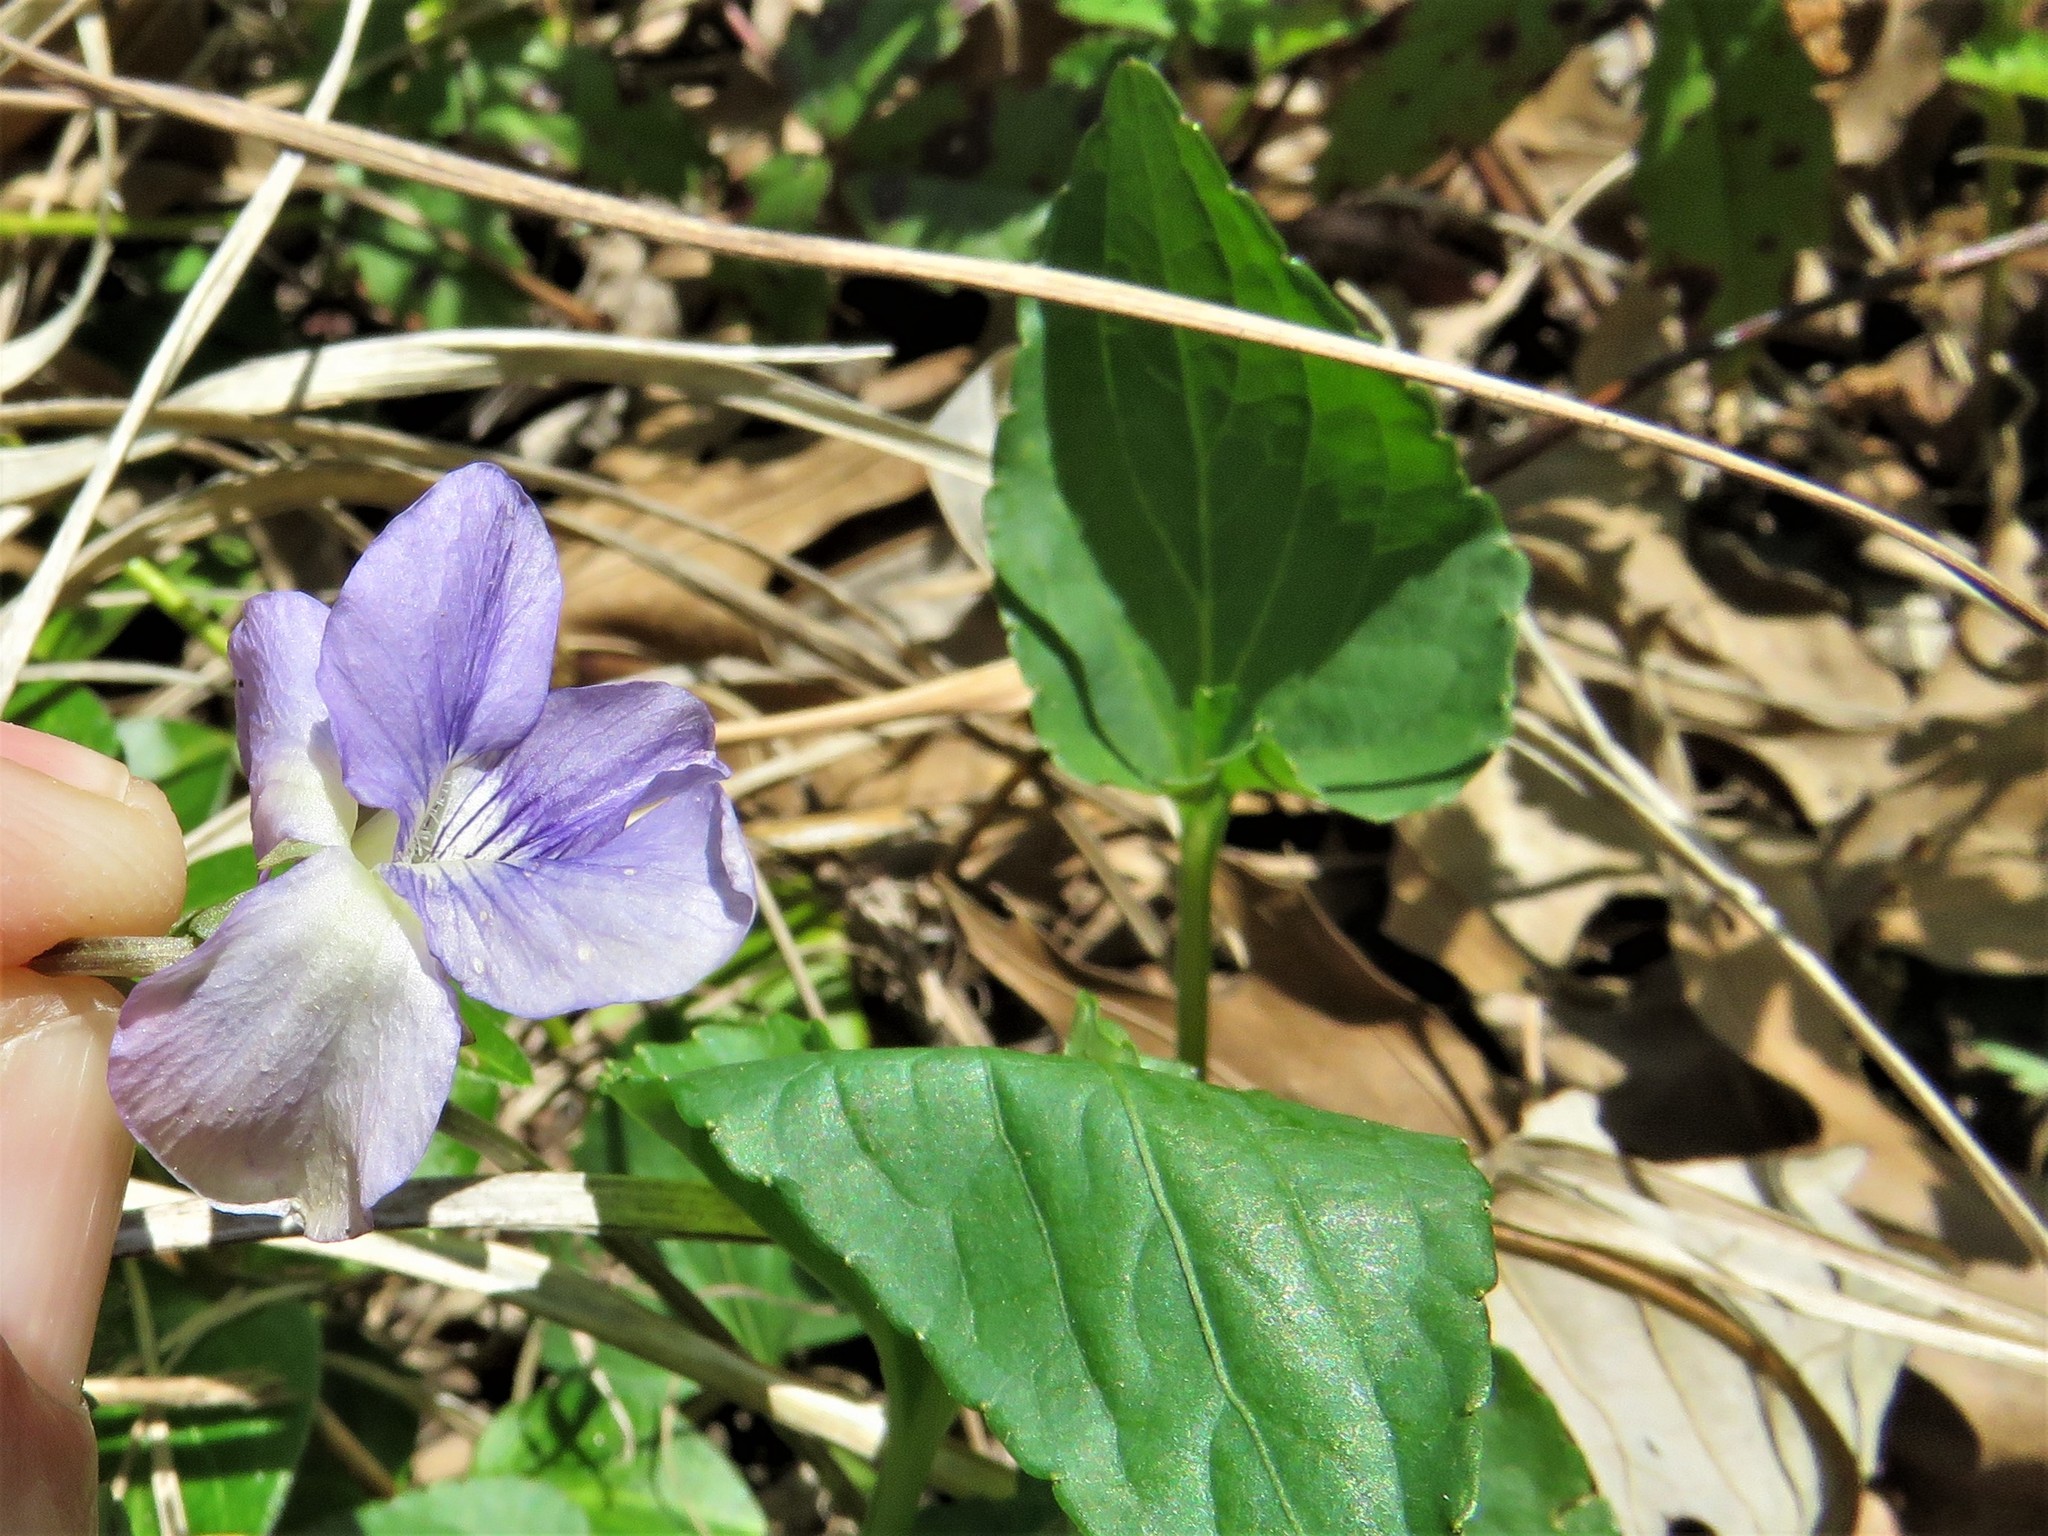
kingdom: Plantae
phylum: Tracheophyta
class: Magnoliopsida
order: Malpighiales
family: Violaceae
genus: Viola
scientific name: Viola missouriensis
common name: Missouri violet
